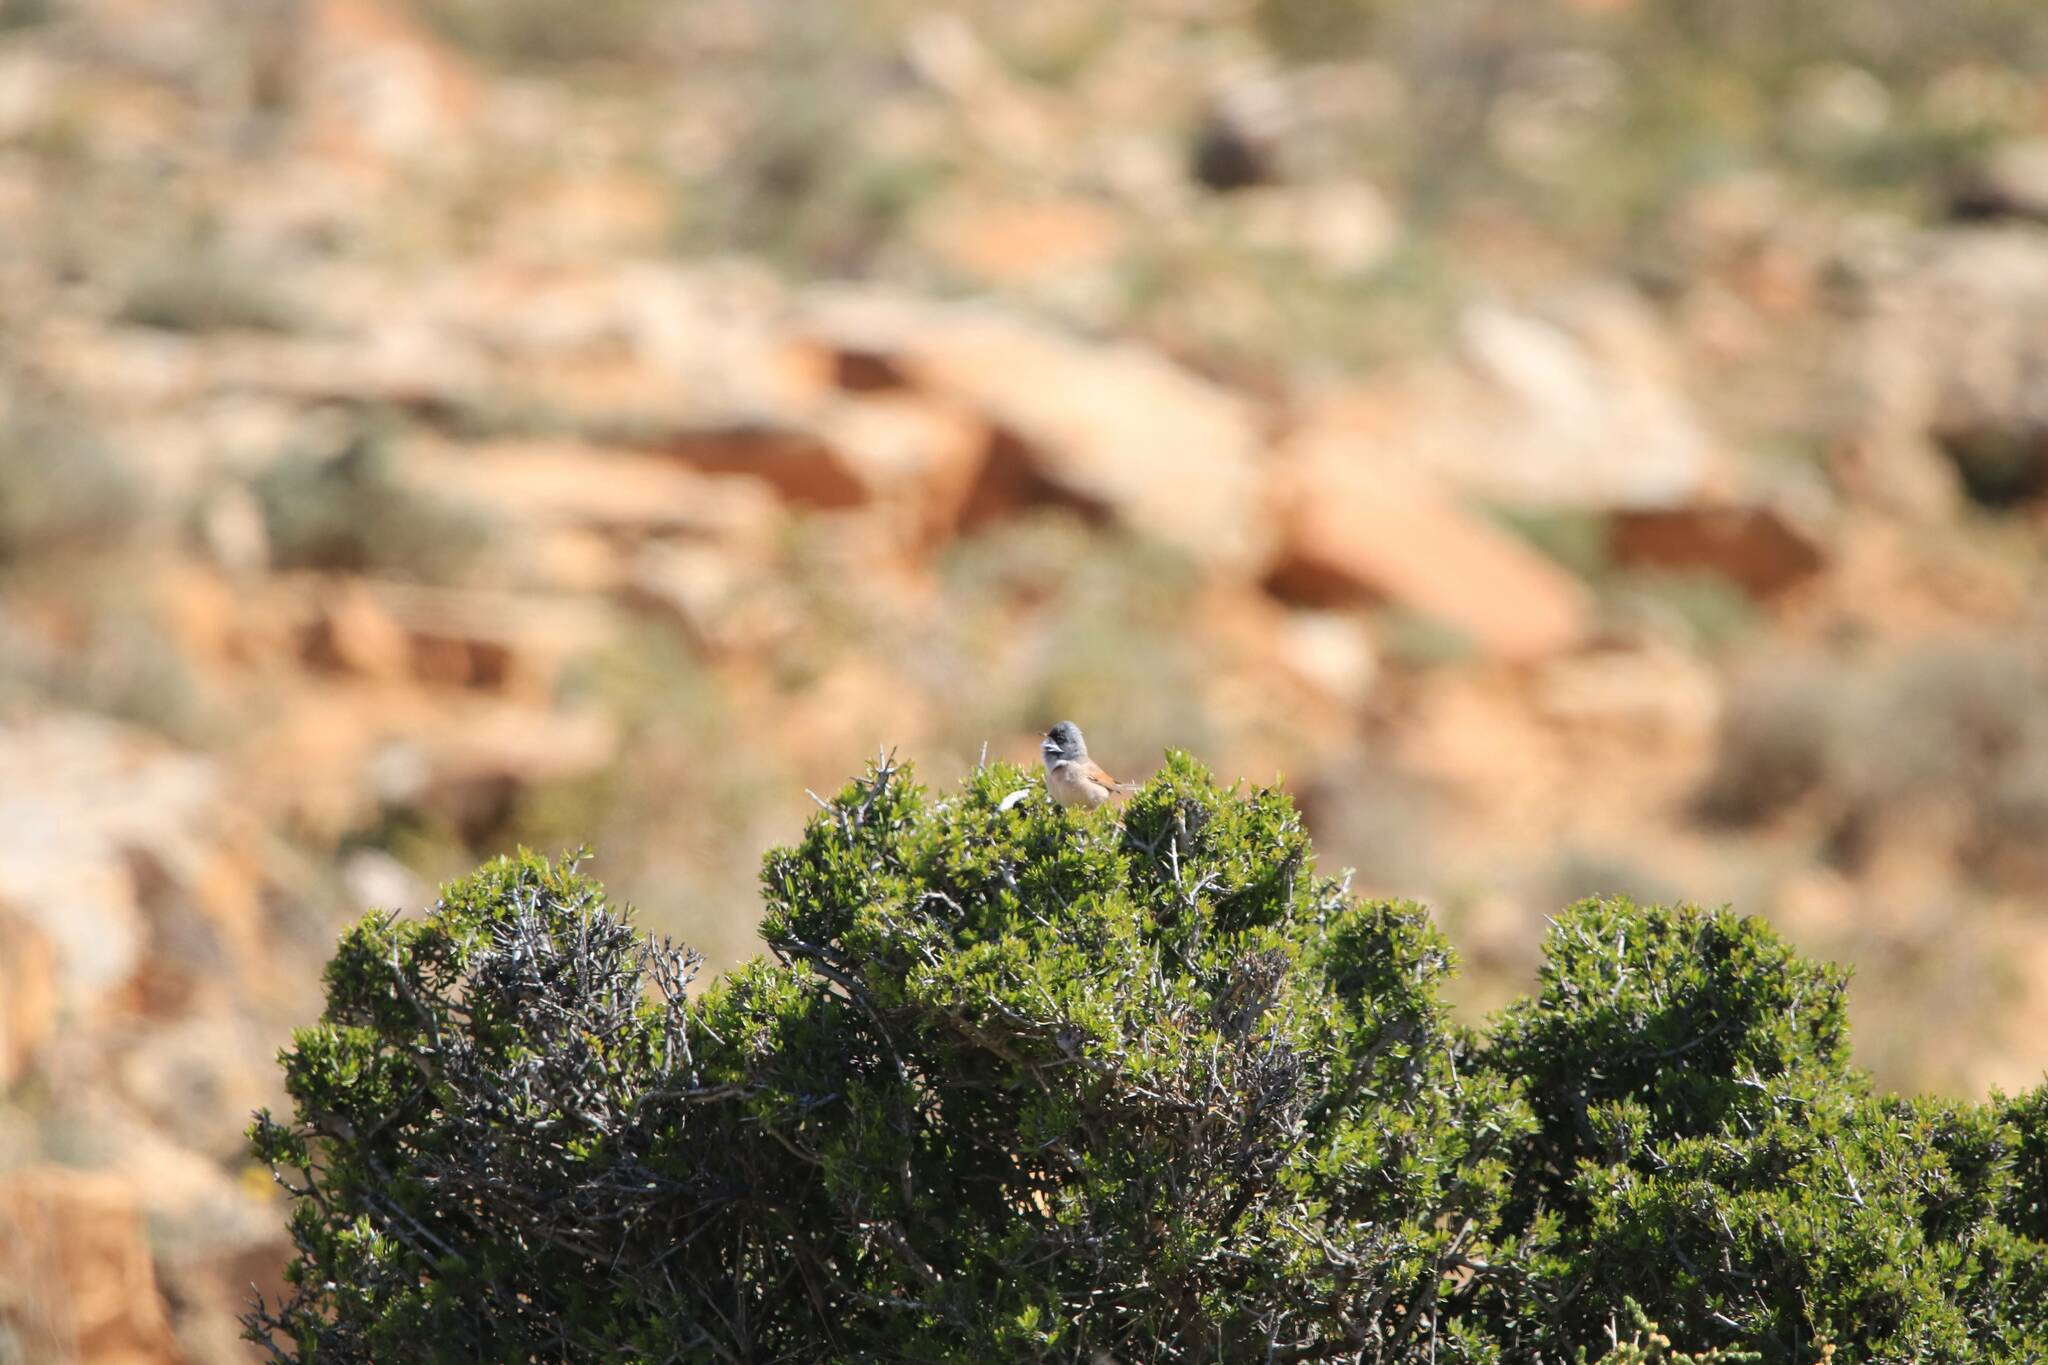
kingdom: Animalia
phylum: Chordata
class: Aves
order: Passeriformes
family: Sylviidae
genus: Sylvia
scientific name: Sylvia conspicillata
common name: Spectacled warbler
